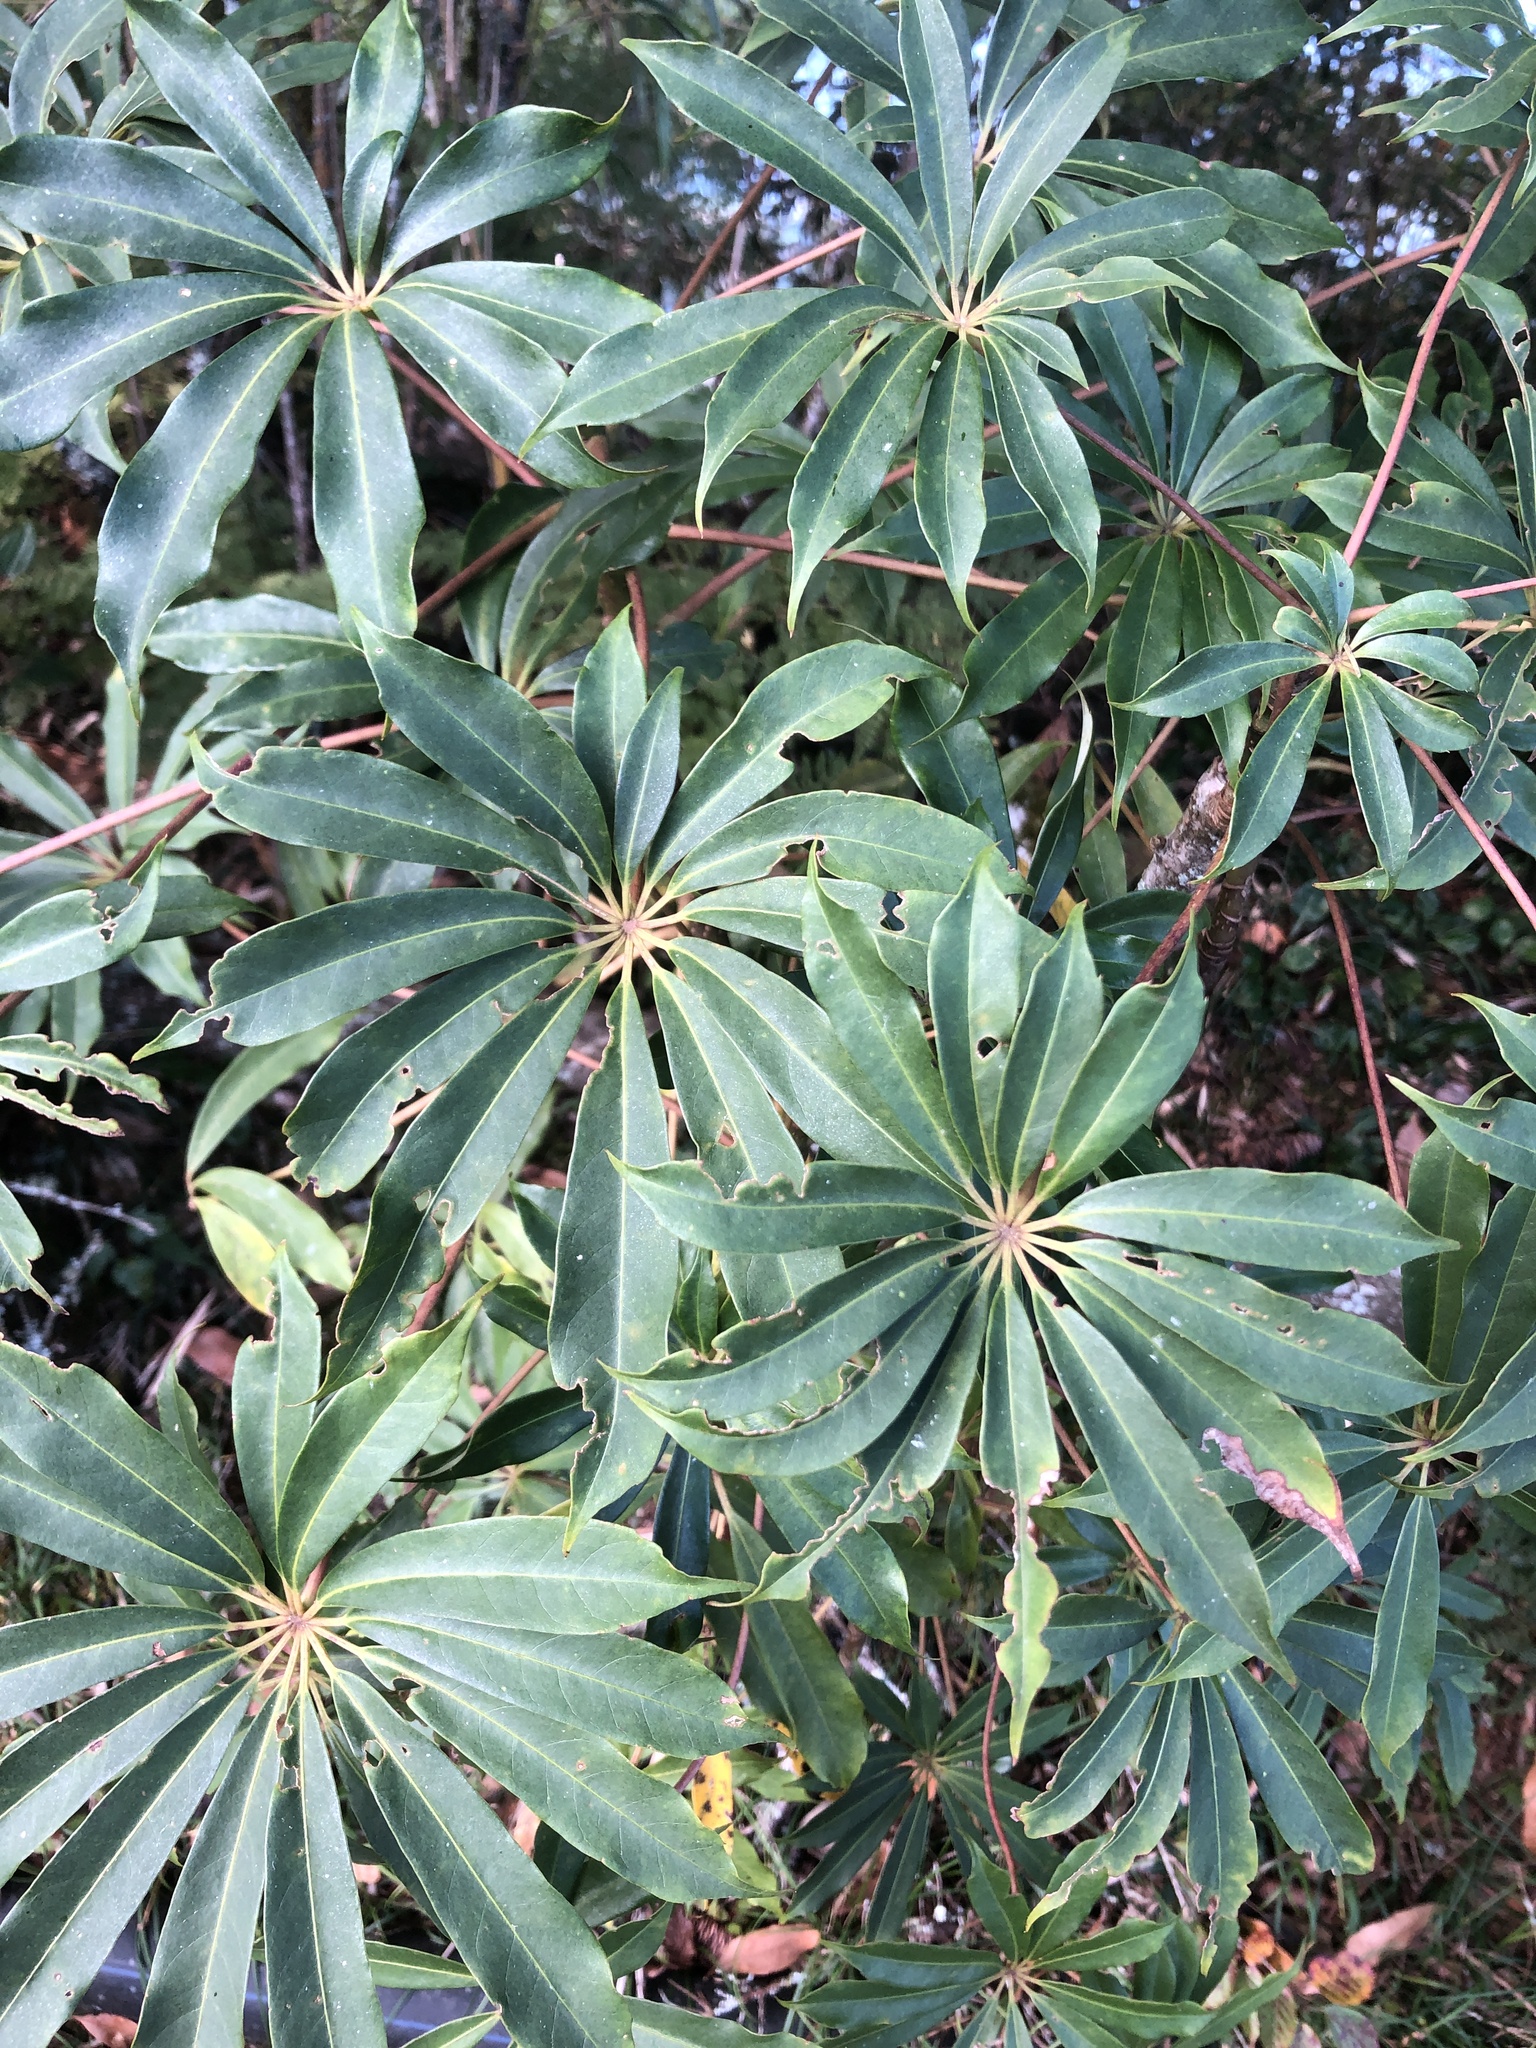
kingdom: Plantae
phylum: Tracheophyta
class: Magnoliopsida
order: Apiales
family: Araliaceae
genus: Heptapleurum
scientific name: Heptapleurum taiwanianum
